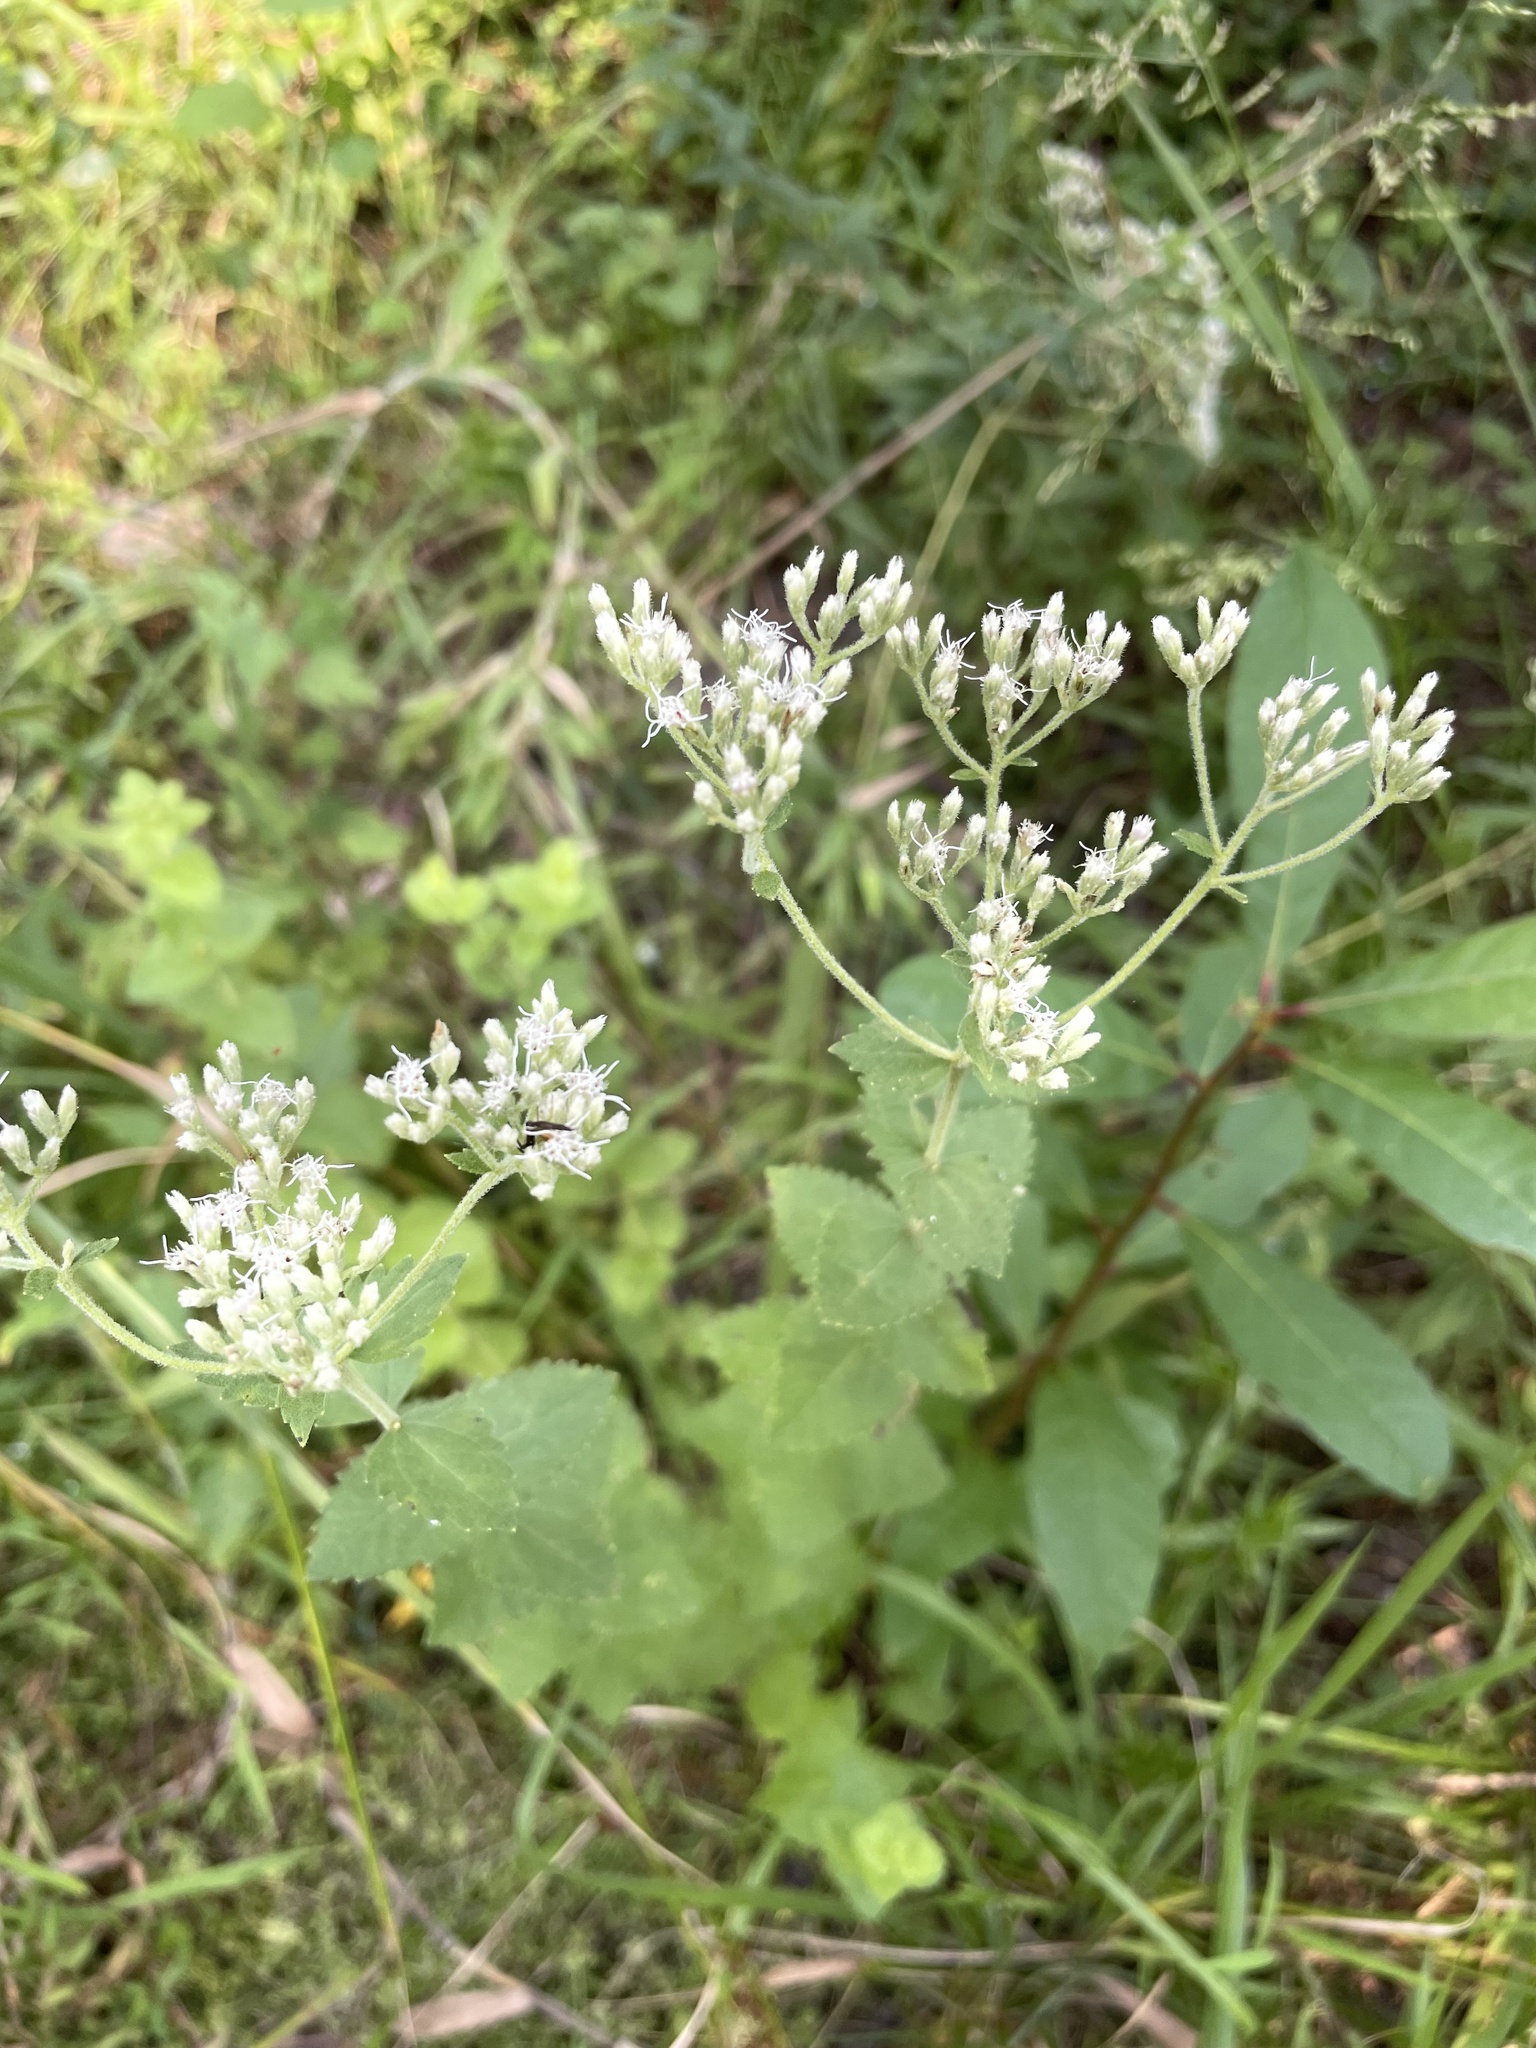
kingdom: Plantae
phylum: Tracheophyta
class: Magnoliopsida
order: Asterales
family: Asteraceae
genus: Eupatorium
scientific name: Eupatorium rotundifolium
